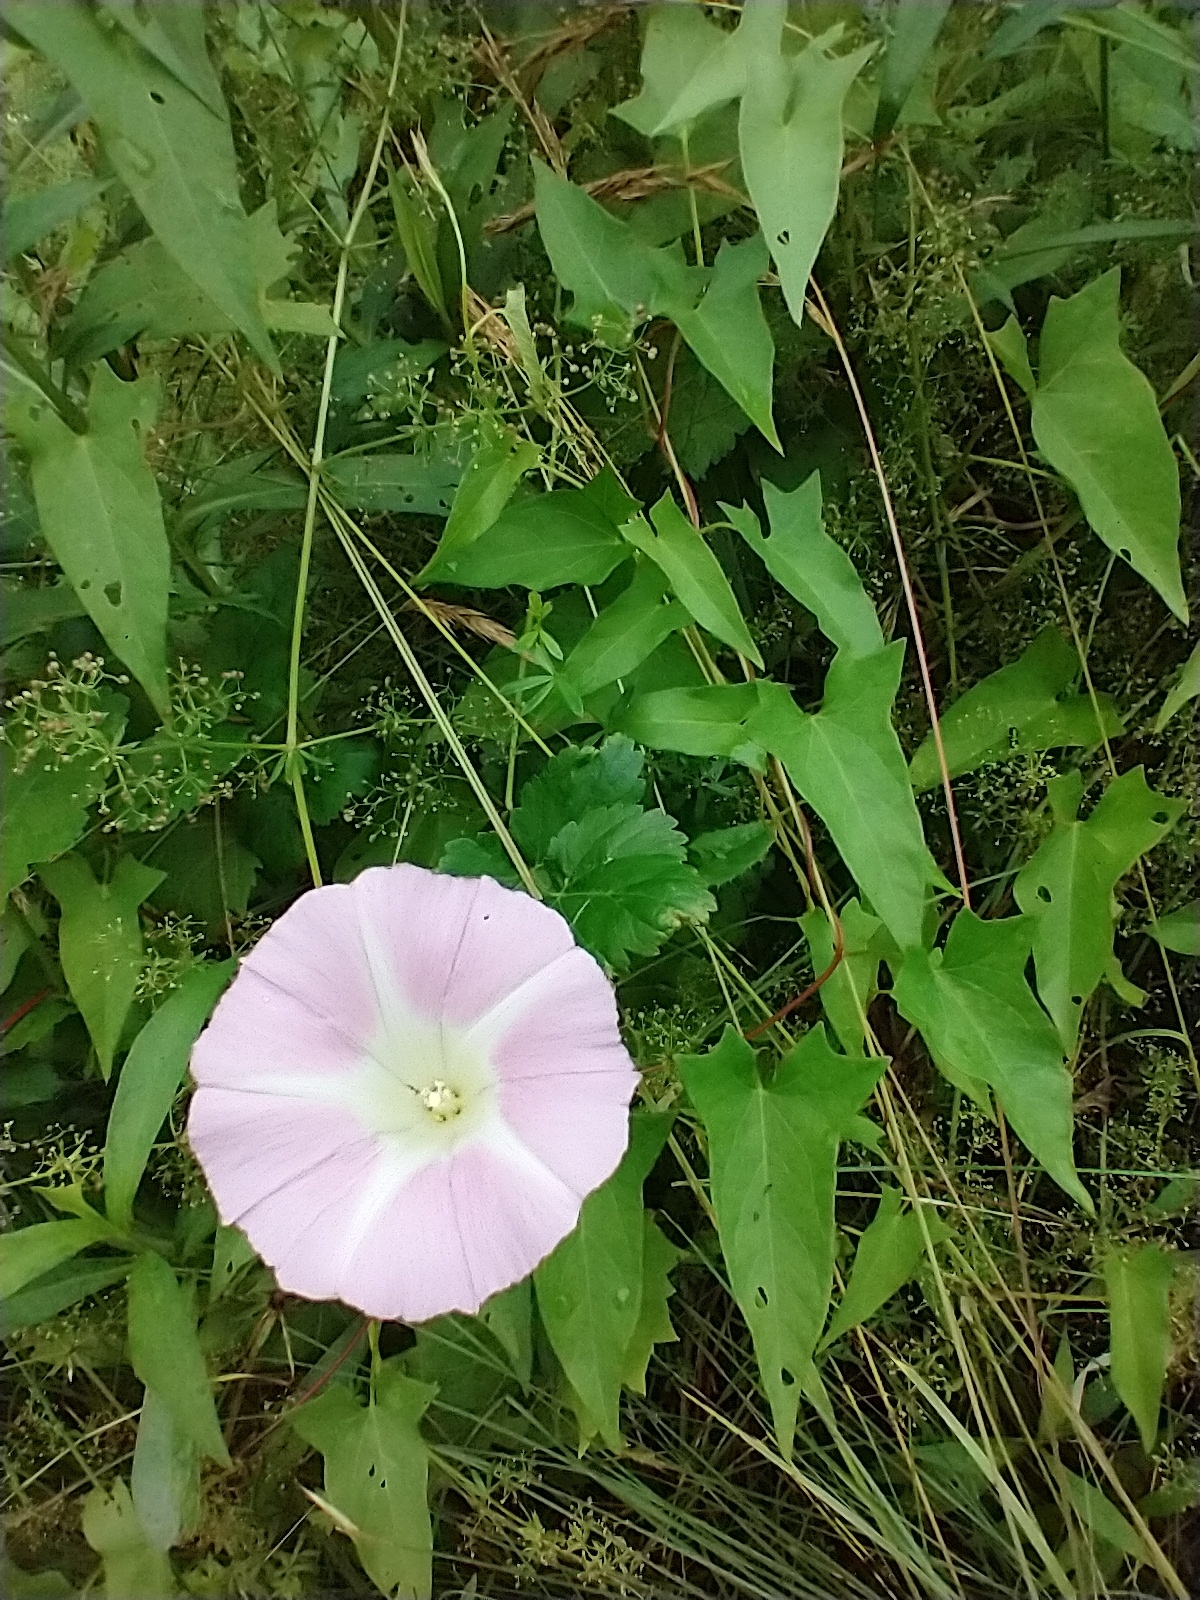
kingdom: Plantae
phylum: Tracheophyta
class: Magnoliopsida
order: Solanales
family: Convolvulaceae
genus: Calystegia
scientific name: Calystegia sepium
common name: Hedge bindweed
